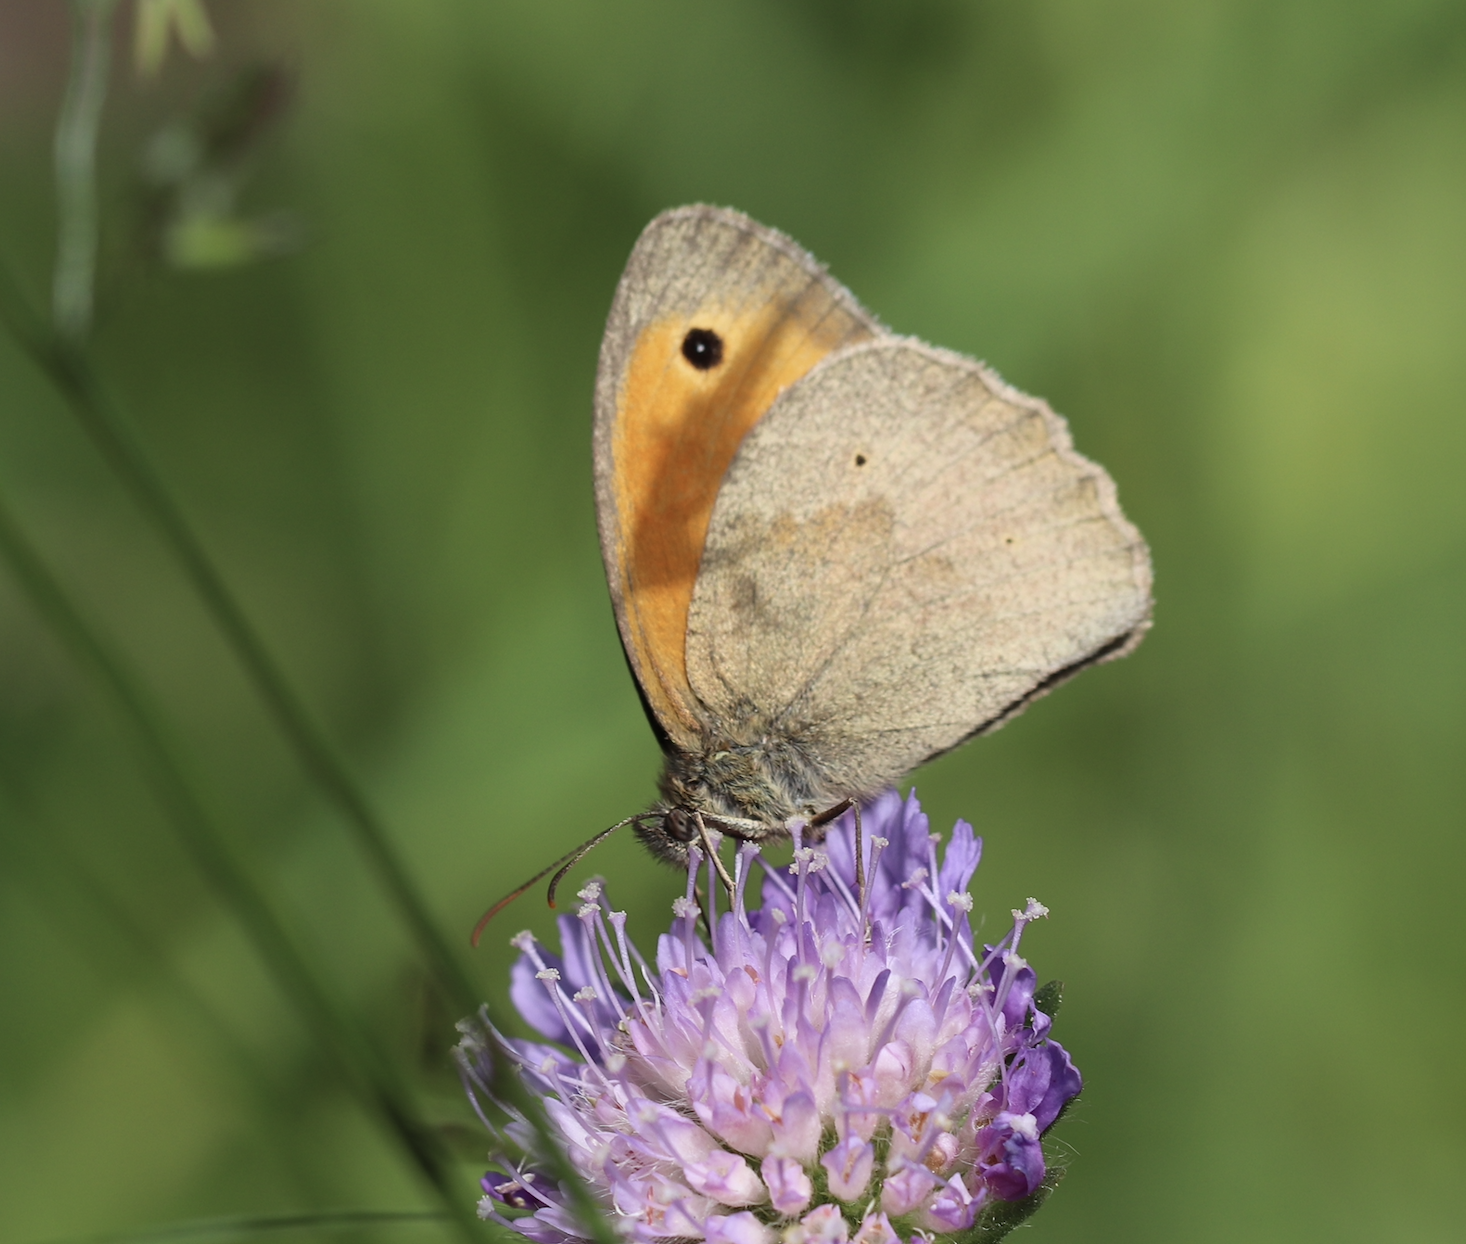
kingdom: Animalia
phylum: Arthropoda
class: Insecta
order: Lepidoptera
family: Nymphalidae
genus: Maniola
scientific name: Maniola jurtina
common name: Meadow brown
